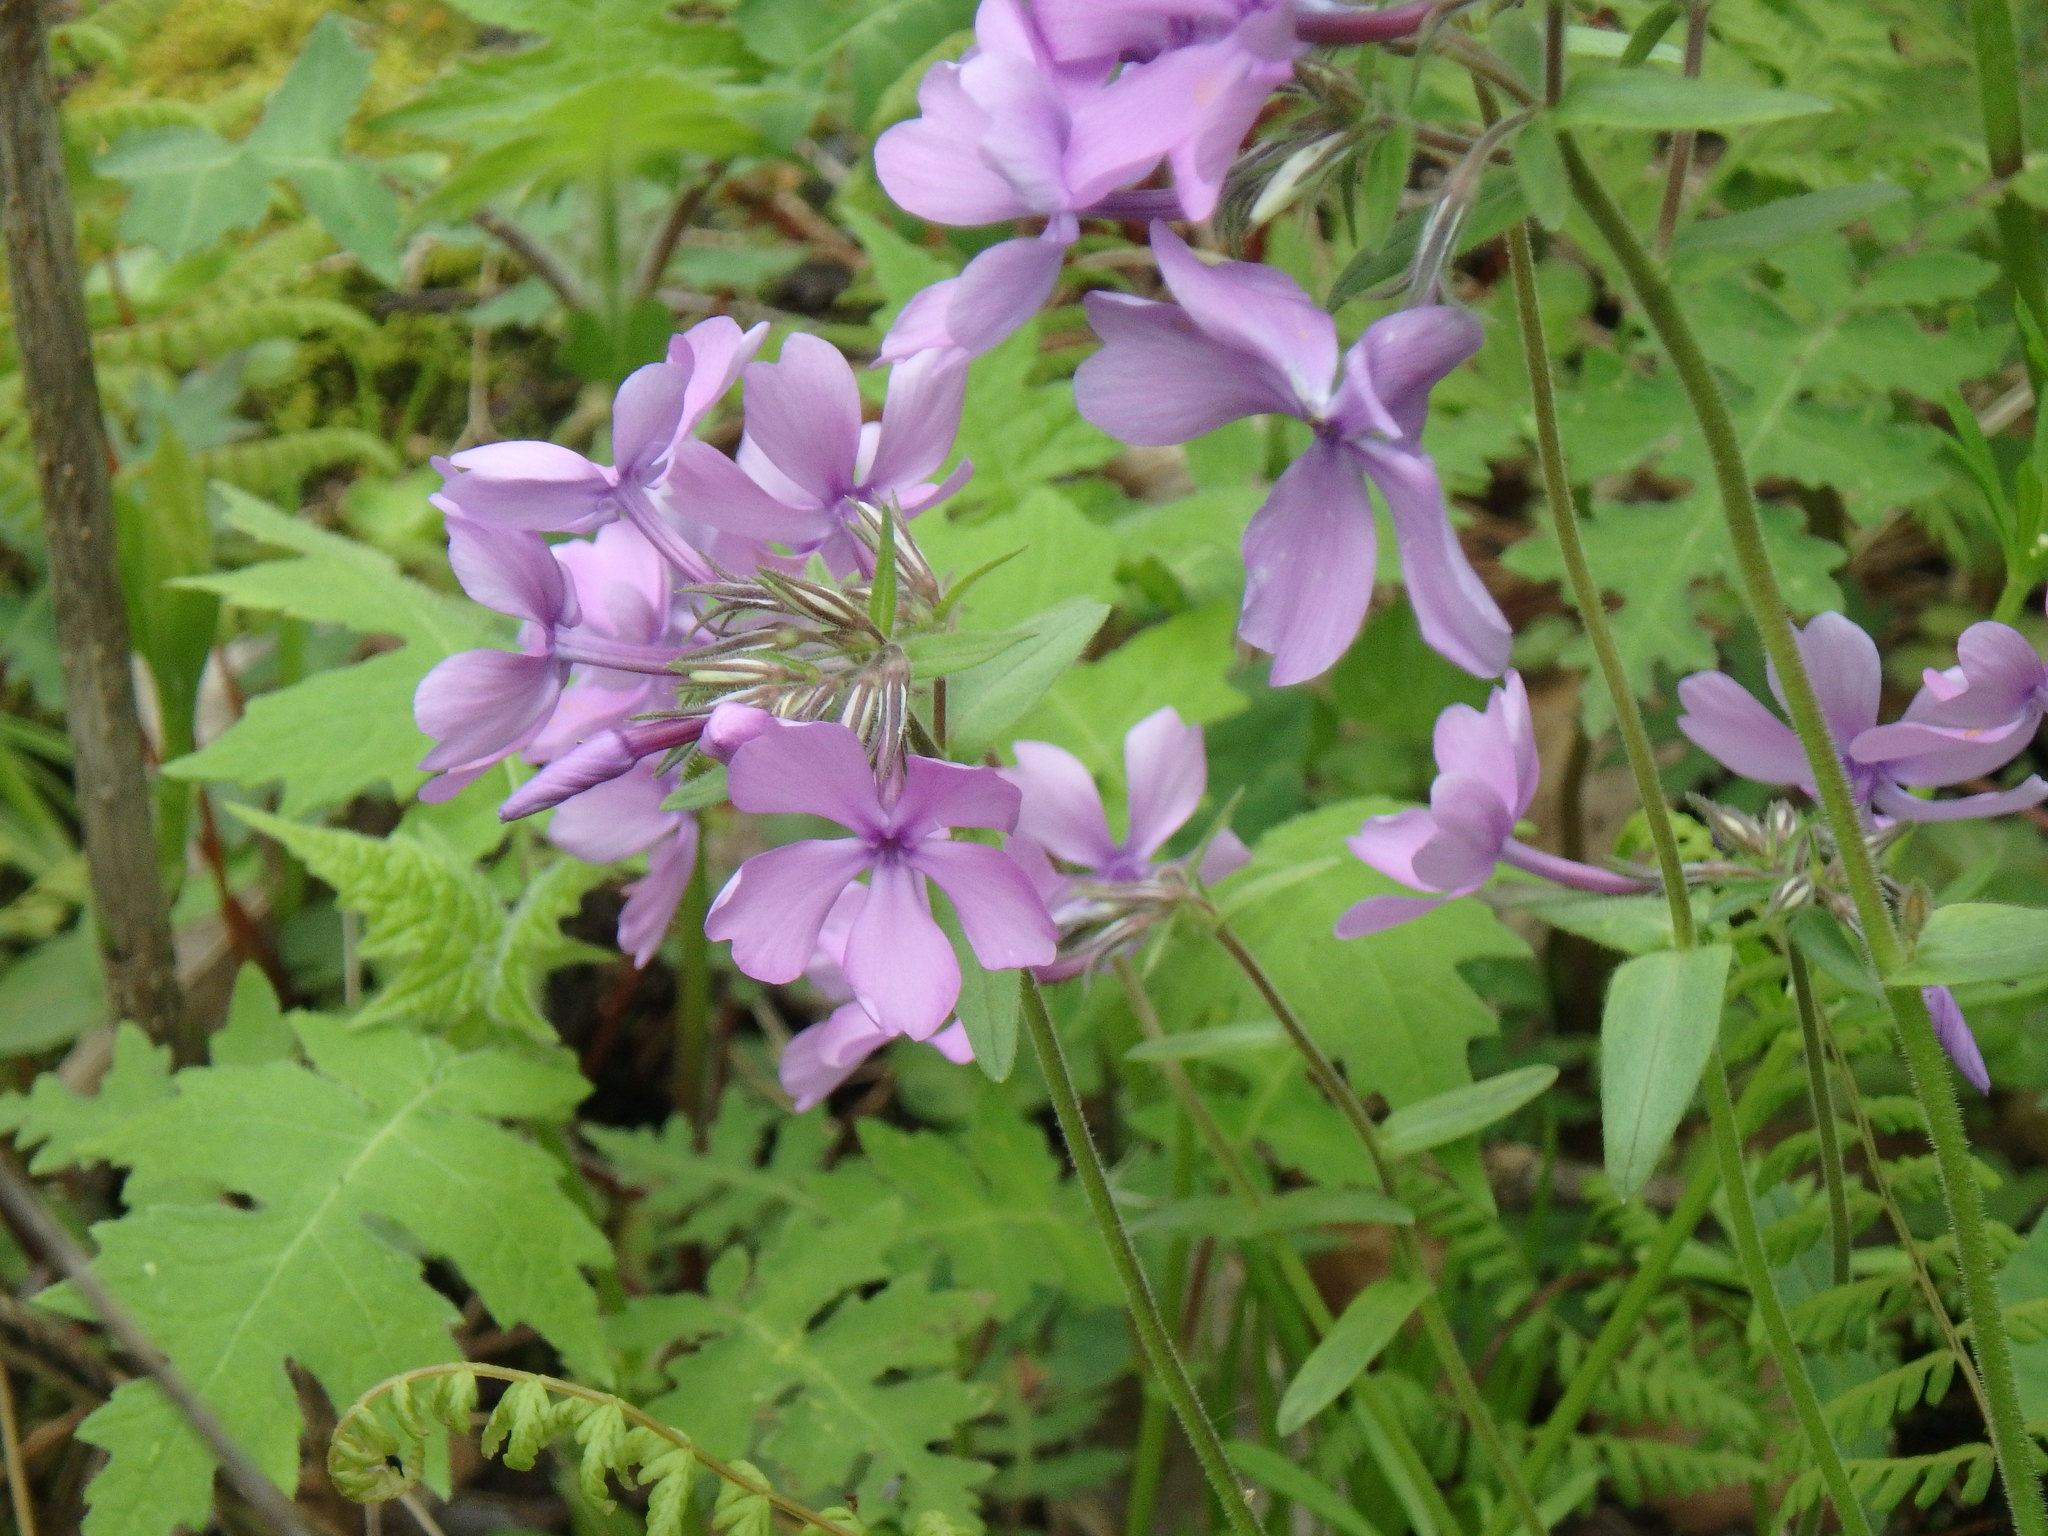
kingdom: Plantae
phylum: Tracheophyta
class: Magnoliopsida
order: Ericales
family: Polemoniaceae
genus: Phlox
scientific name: Phlox divaricata
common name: Blue phlox
